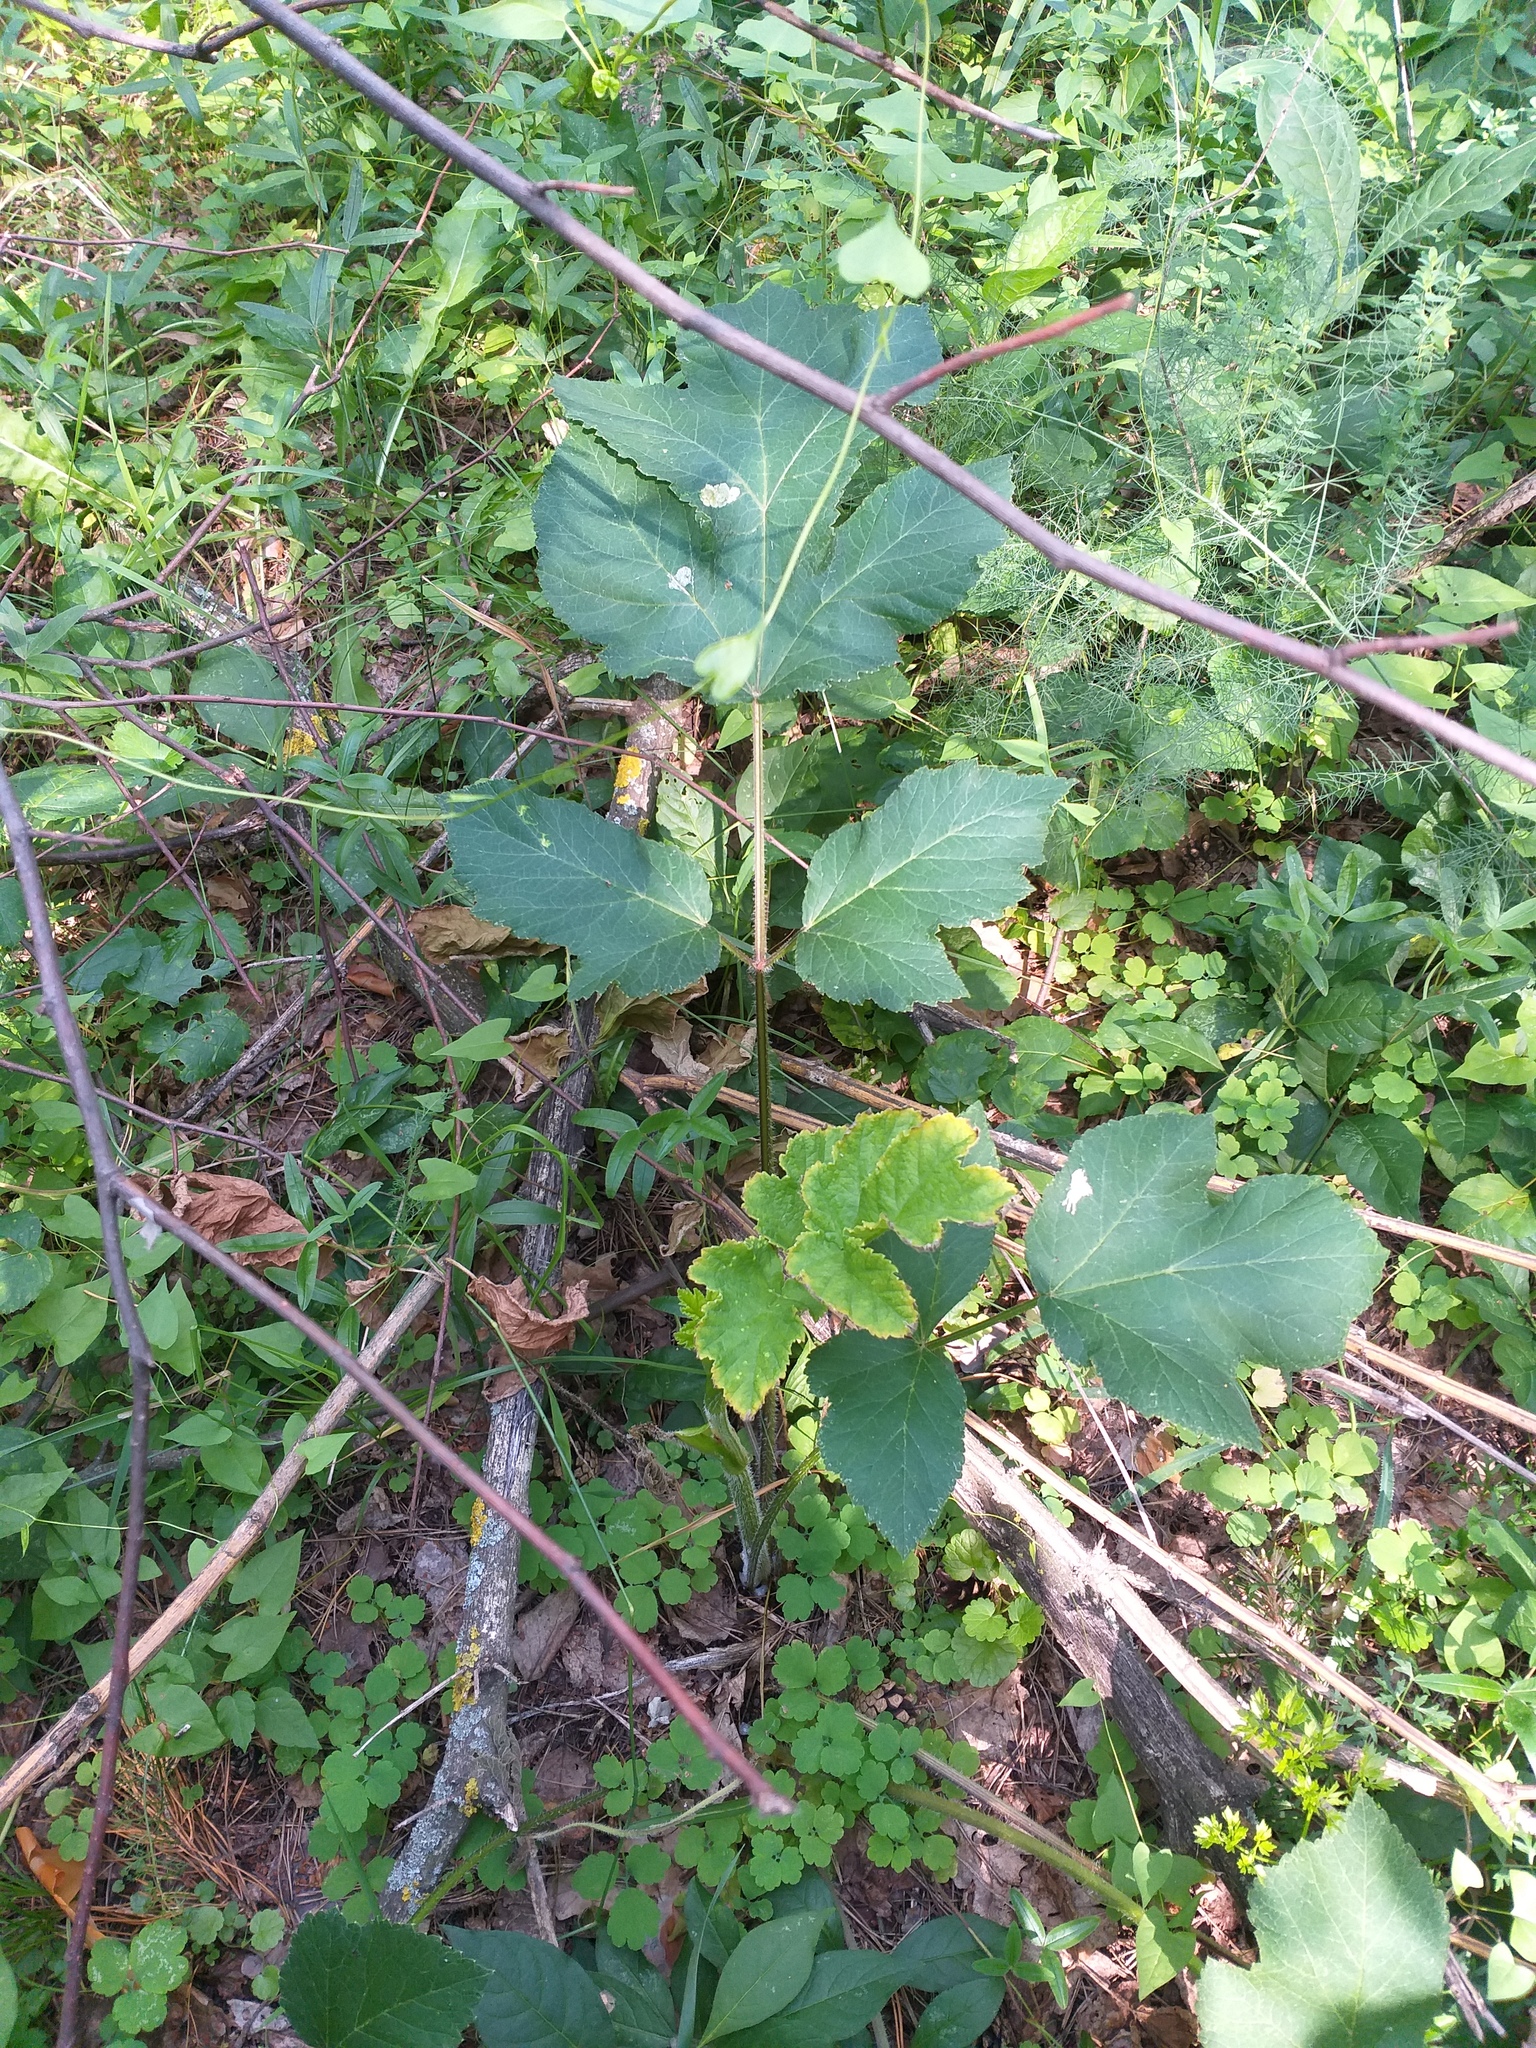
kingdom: Plantae
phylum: Tracheophyta
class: Magnoliopsida
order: Apiales
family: Apiaceae
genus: Heracleum
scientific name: Heracleum sphondylium
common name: Hogweed
